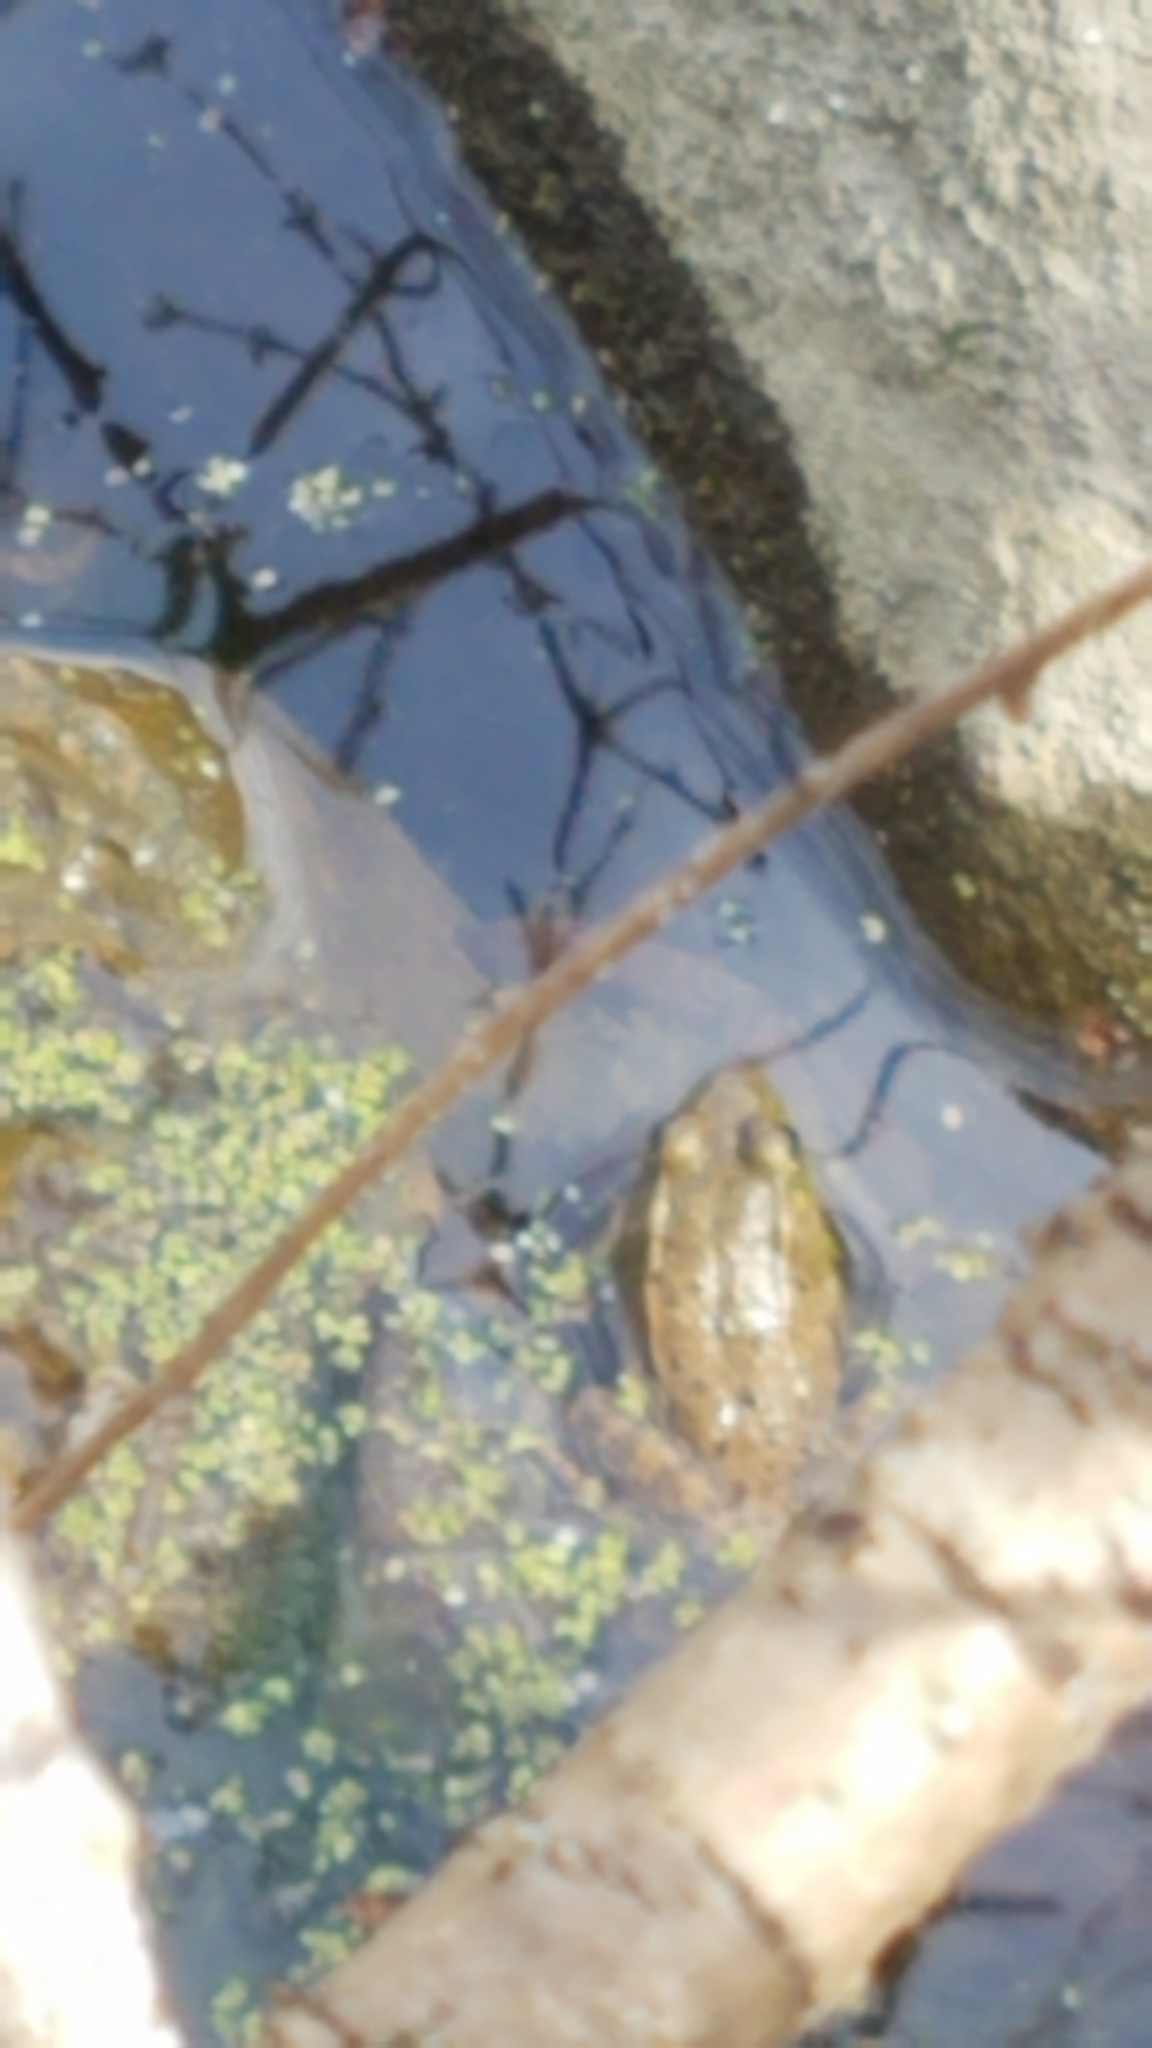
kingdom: Animalia
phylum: Chordata
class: Amphibia
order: Anura
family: Ranidae
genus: Lithobates
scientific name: Lithobates clamitans
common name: Green frog
